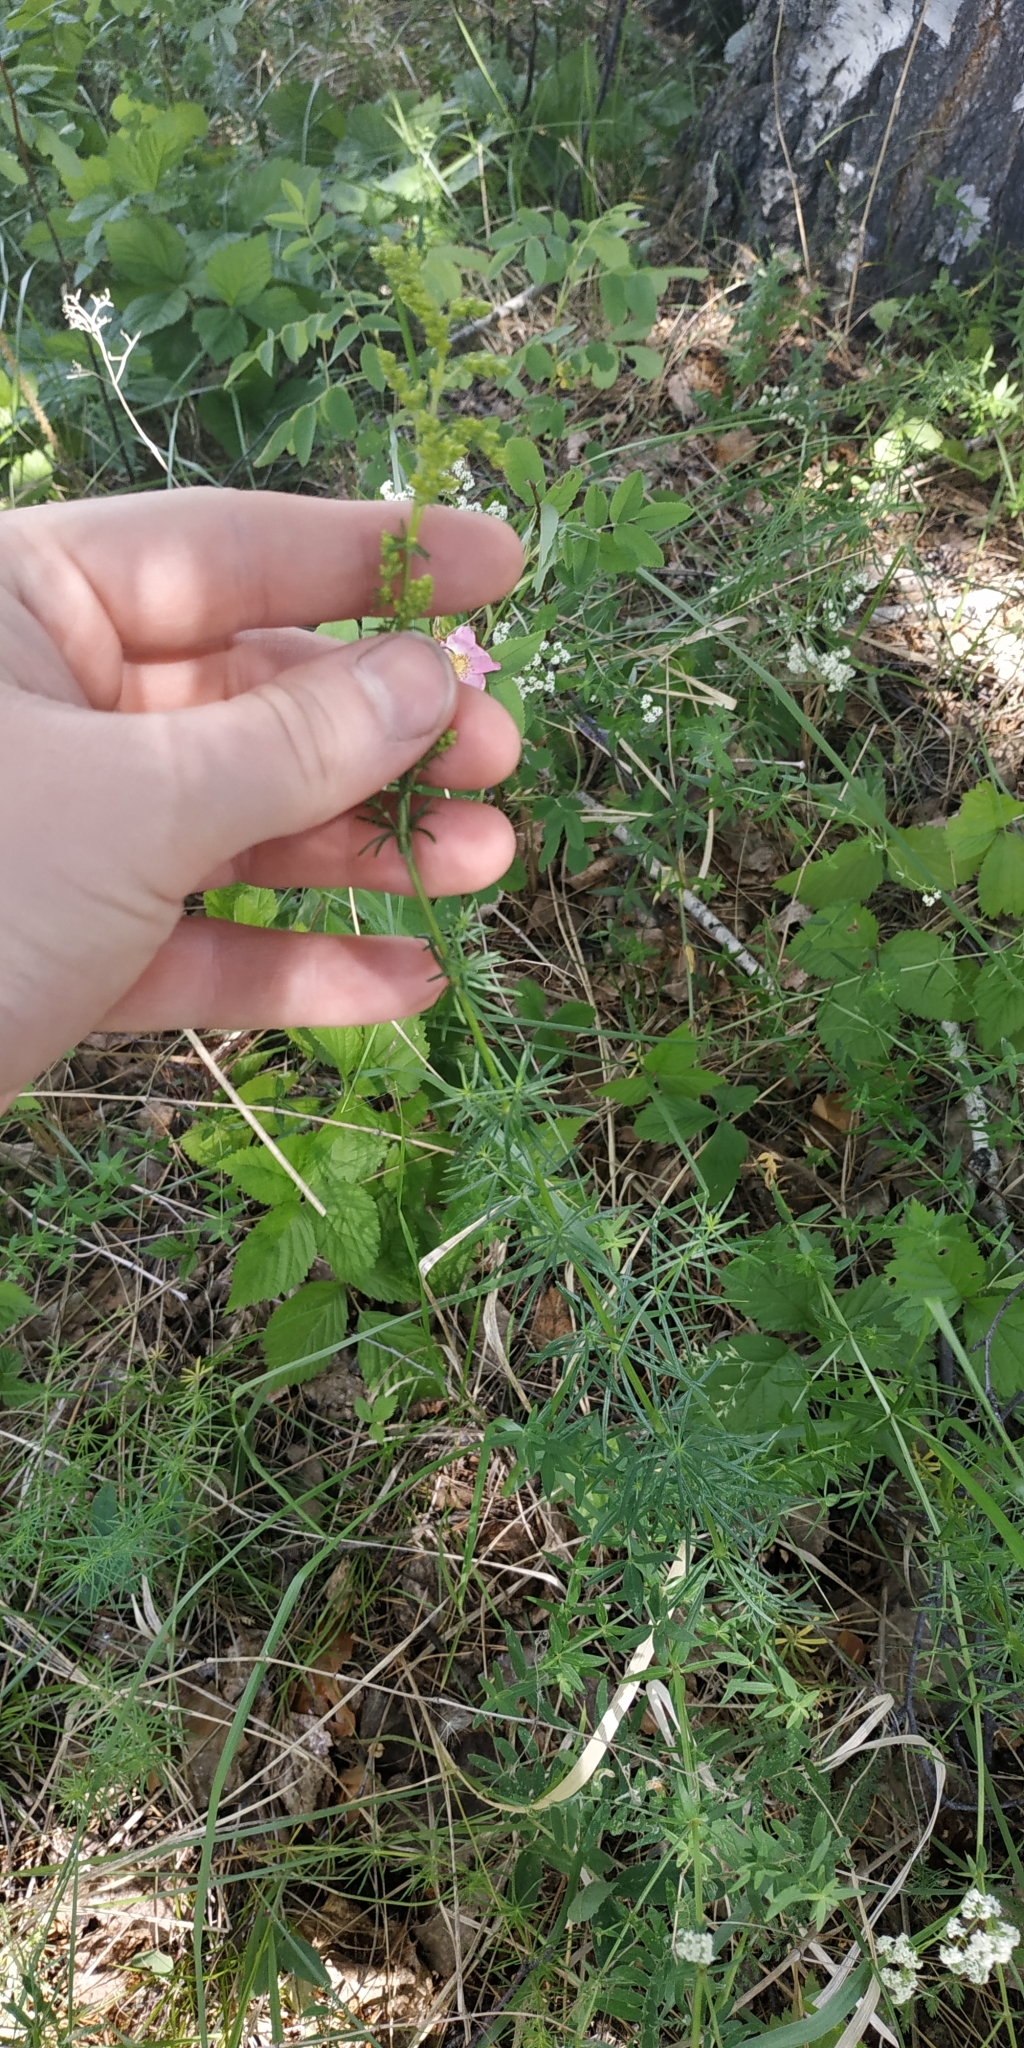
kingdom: Plantae
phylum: Tracheophyta
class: Magnoliopsida
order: Gentianales
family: Rubiaceae
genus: Galium
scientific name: Galium verum
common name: Lady's bedstraw
